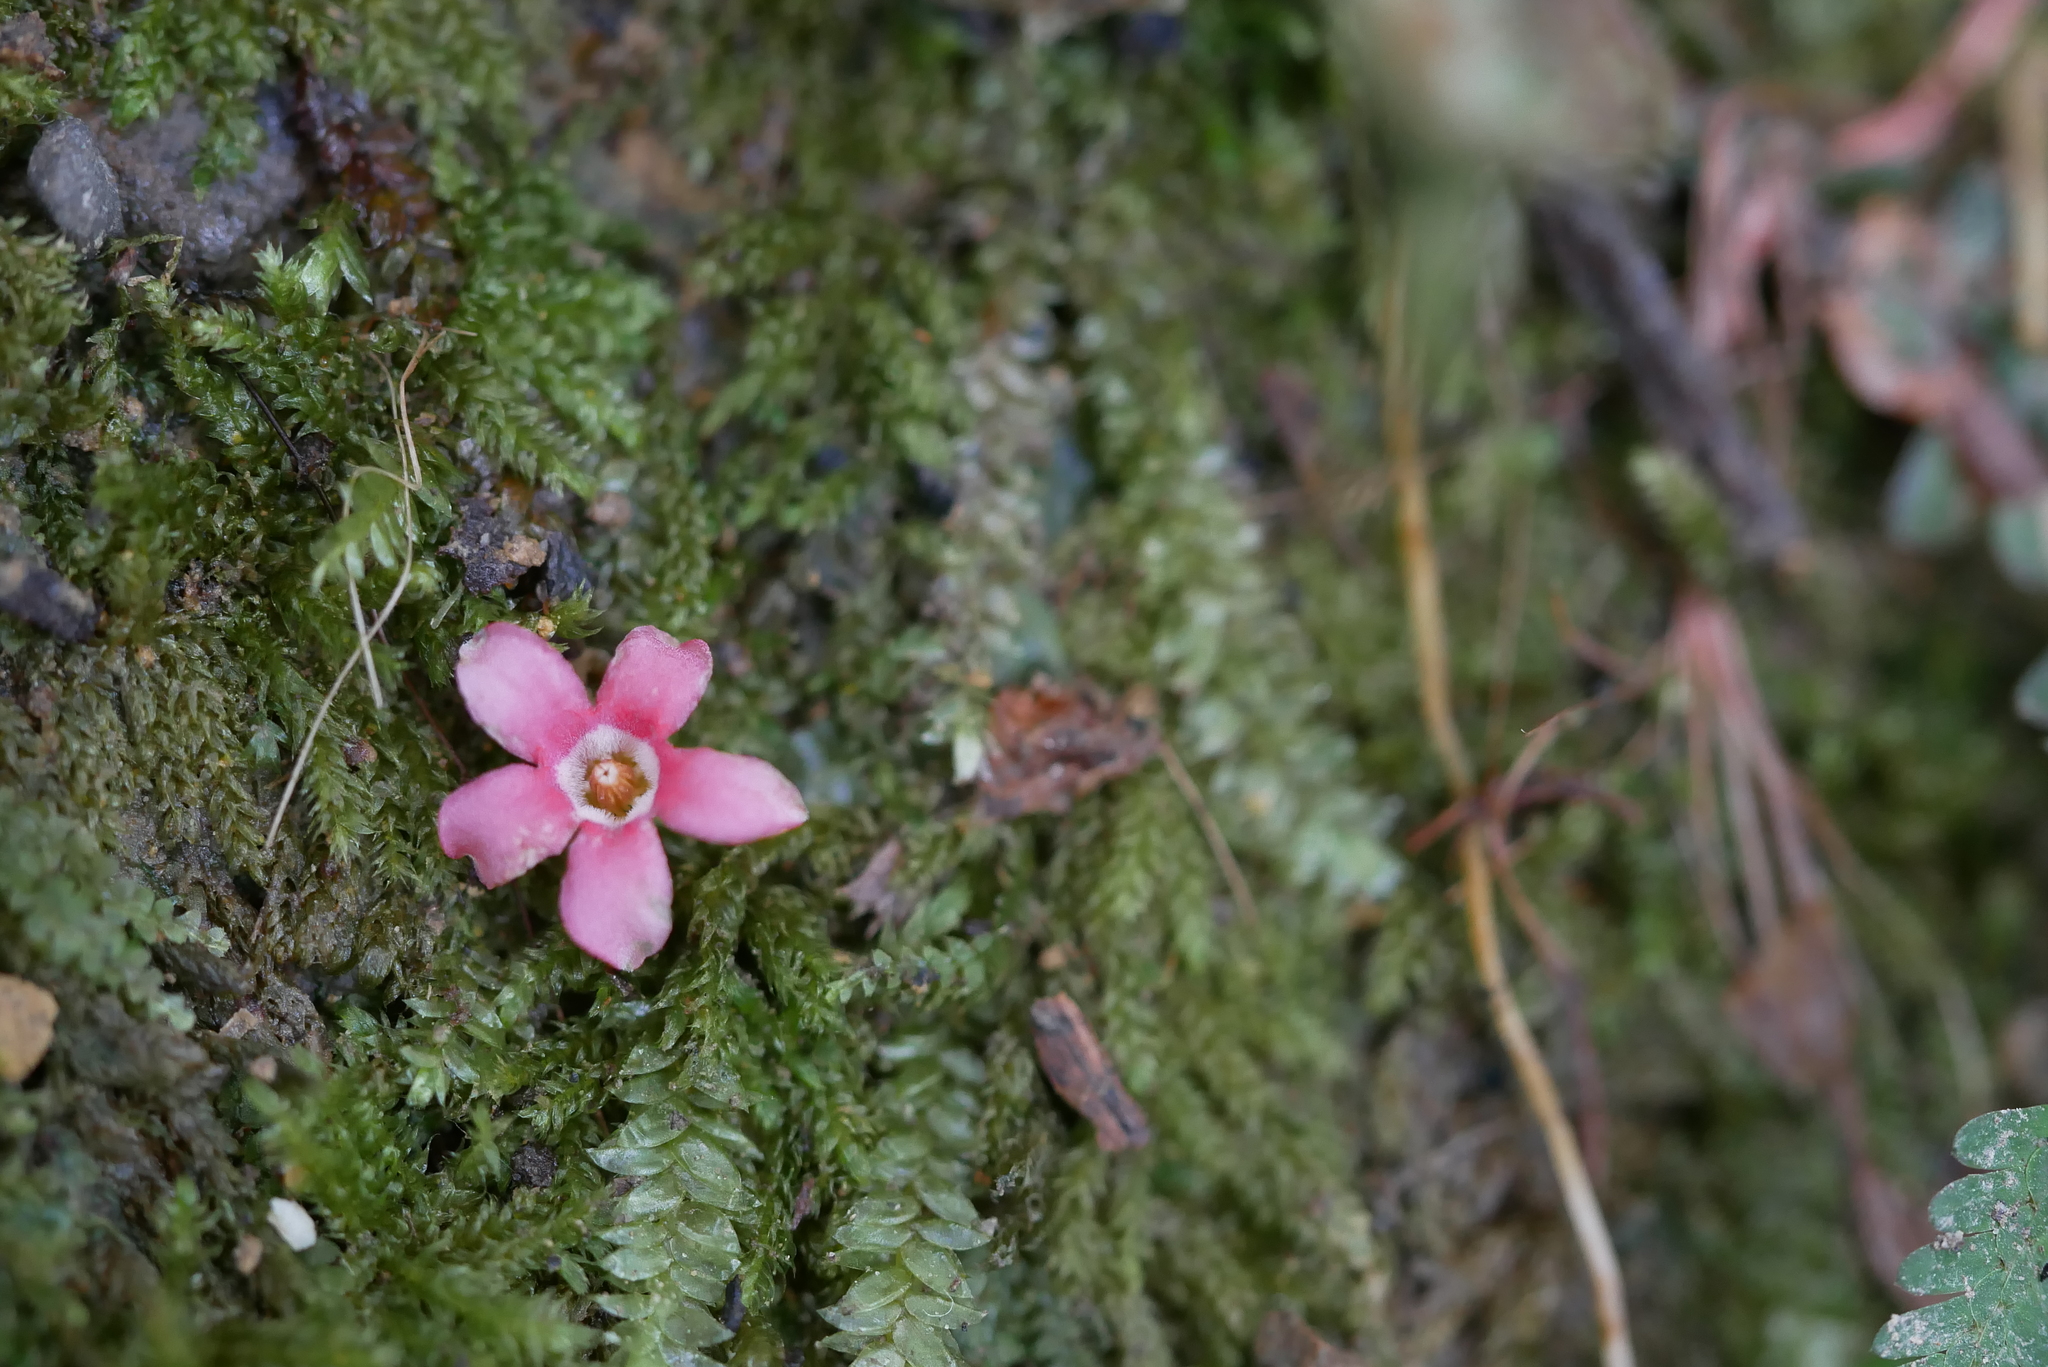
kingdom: Plantae
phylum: Tracheophyta
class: Magnoliopsida
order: Gentianales
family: Apocynaceae
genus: Urceola
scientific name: Urceola rosea
